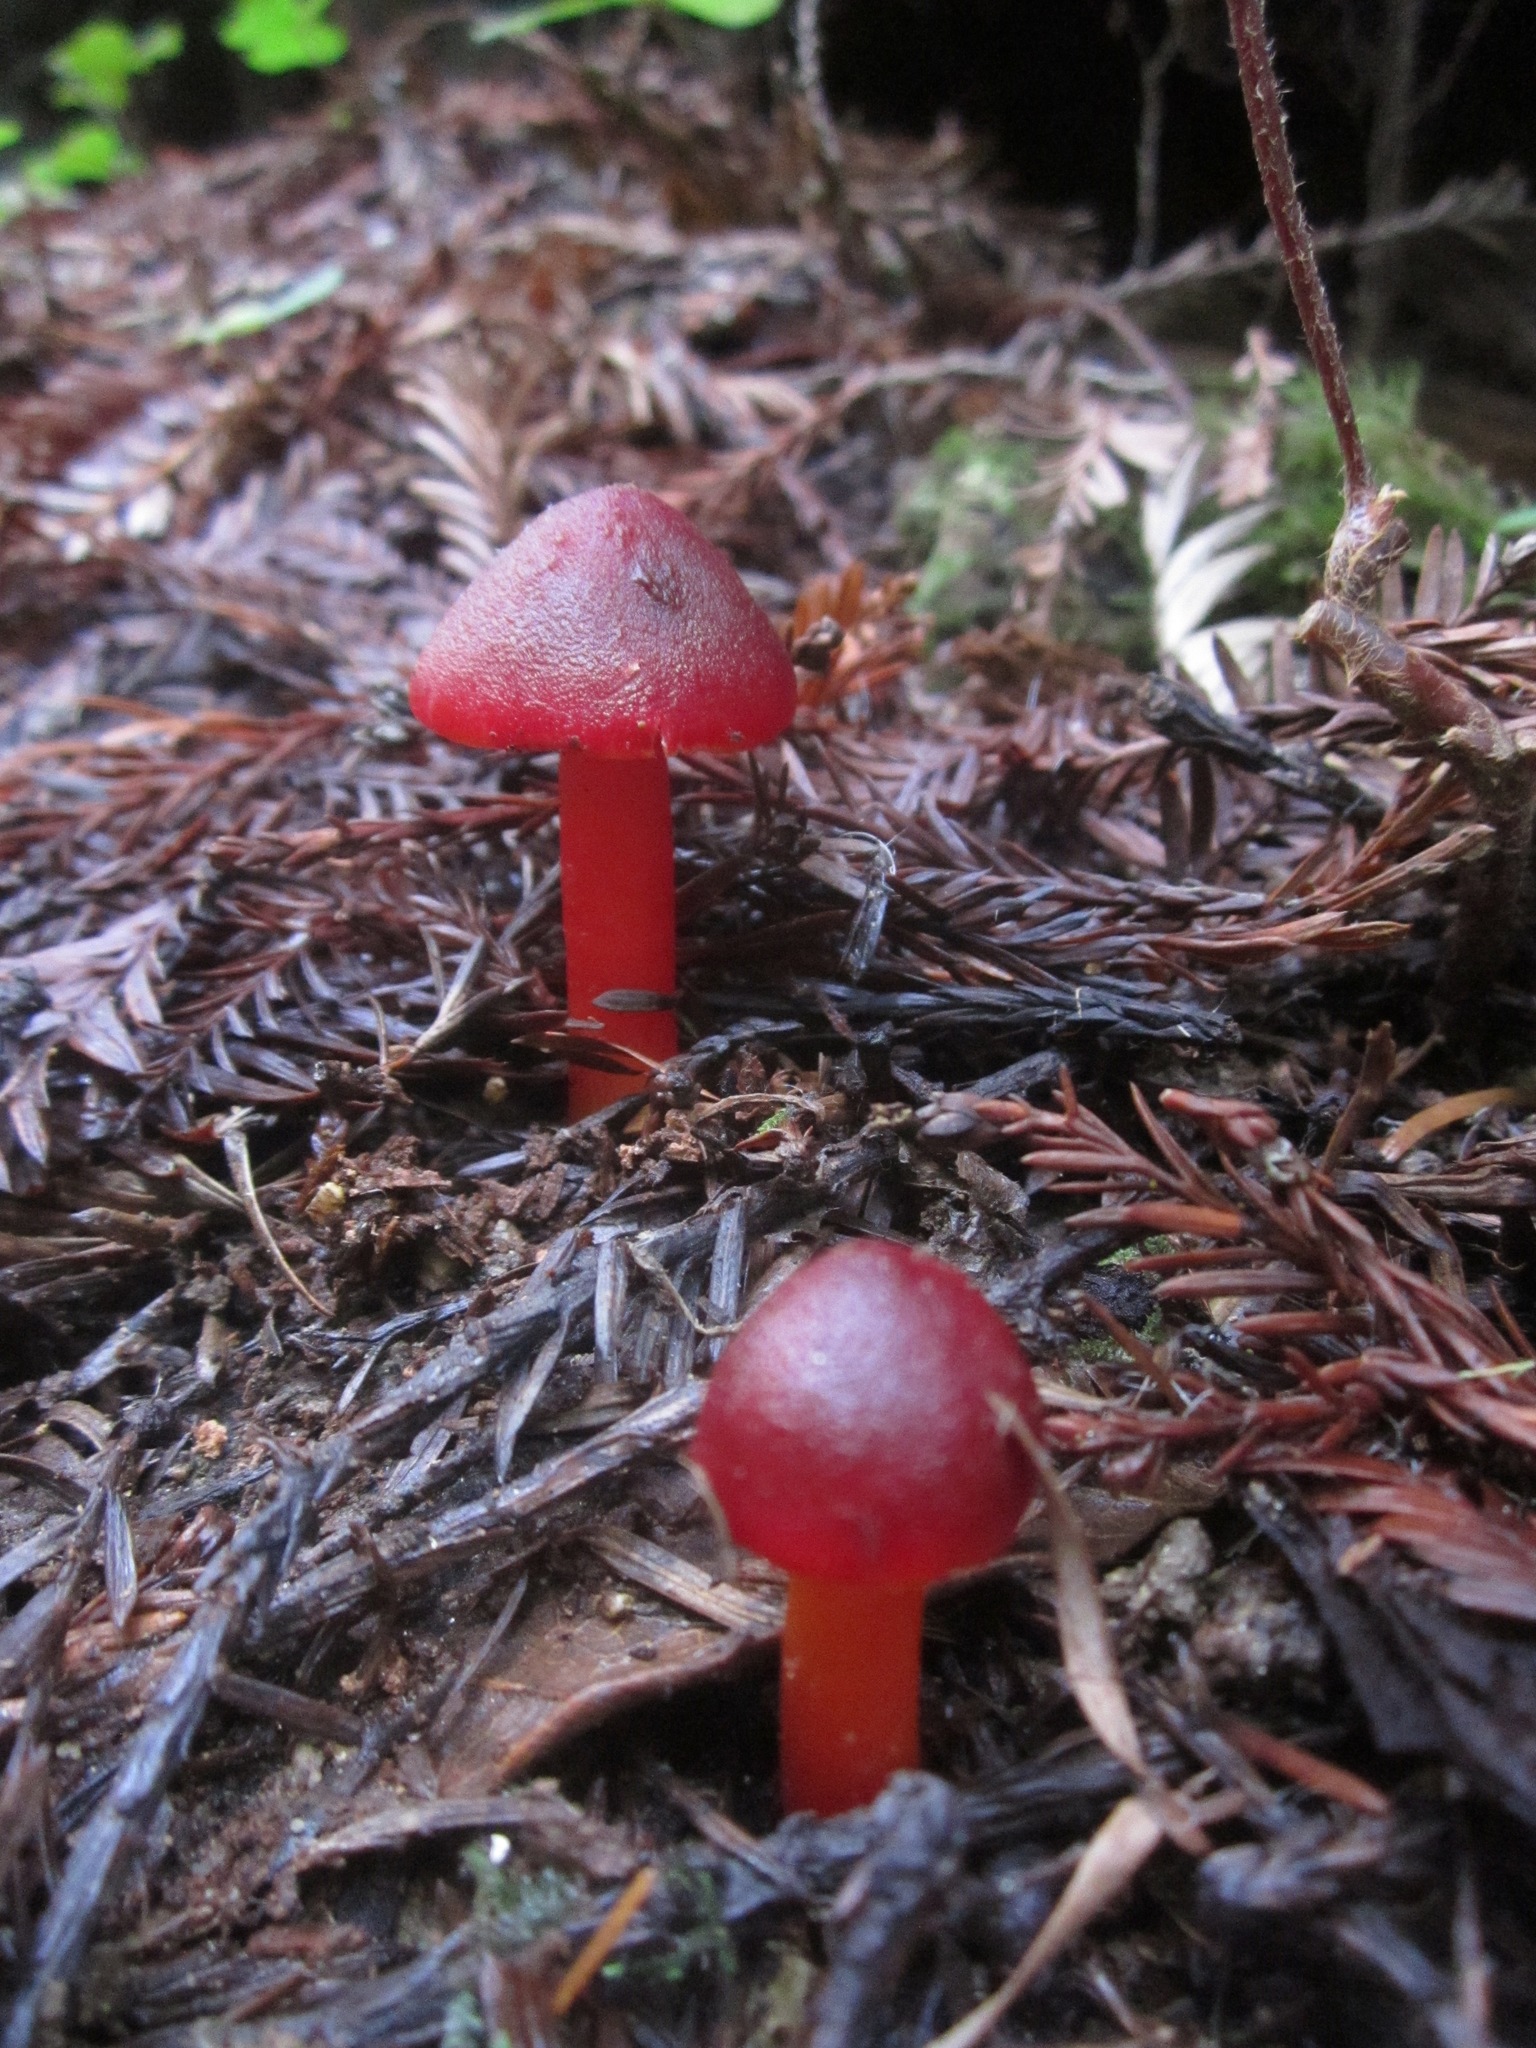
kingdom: Fungi
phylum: Basidiomycota
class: Agaricomycetes
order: Agaricales
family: Hygrophoraceae
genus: Hygrocybe
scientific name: Hygrocybe coccinea
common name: Scarlet hood
